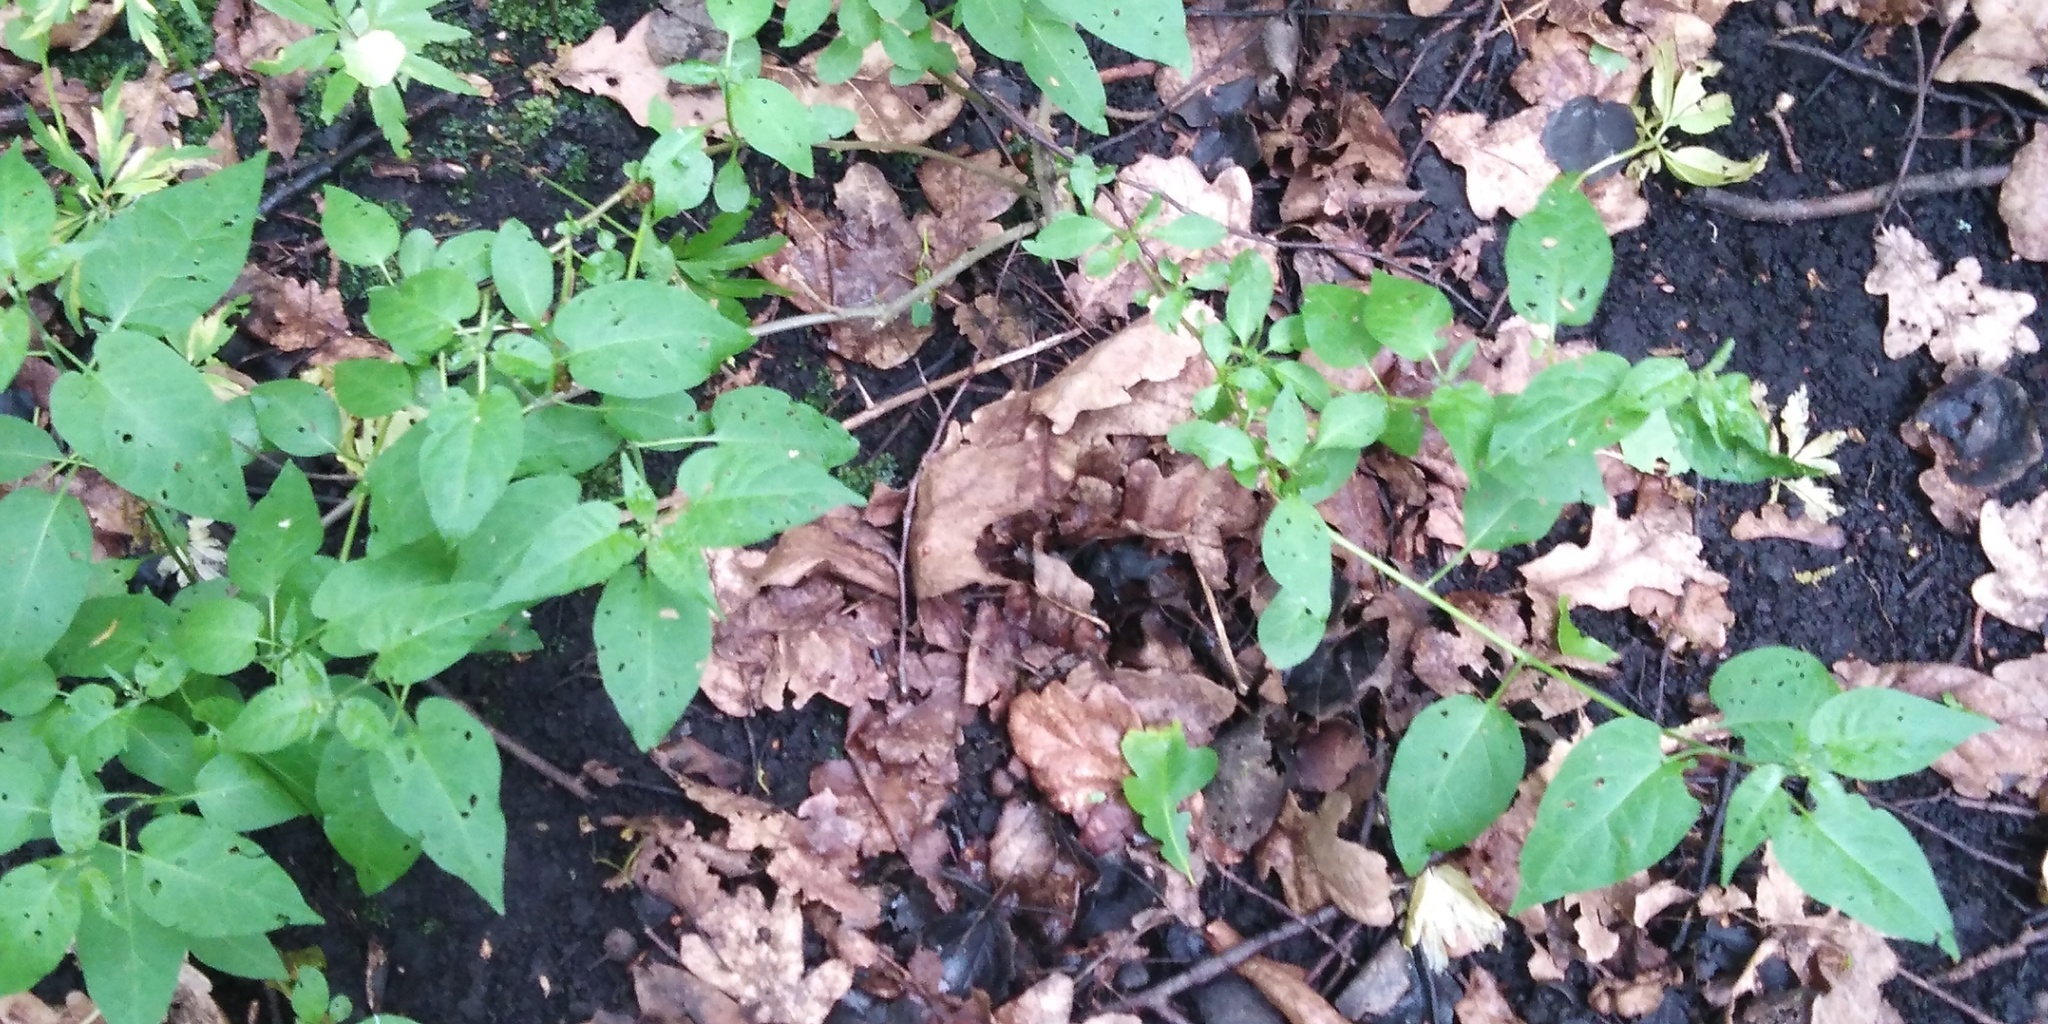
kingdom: Plantae
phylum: Tracheophyta
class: Magnoliopsida
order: Solanales
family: Solanaceae
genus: Solanum
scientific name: Solanum dulcamara
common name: Climbing nightshade
